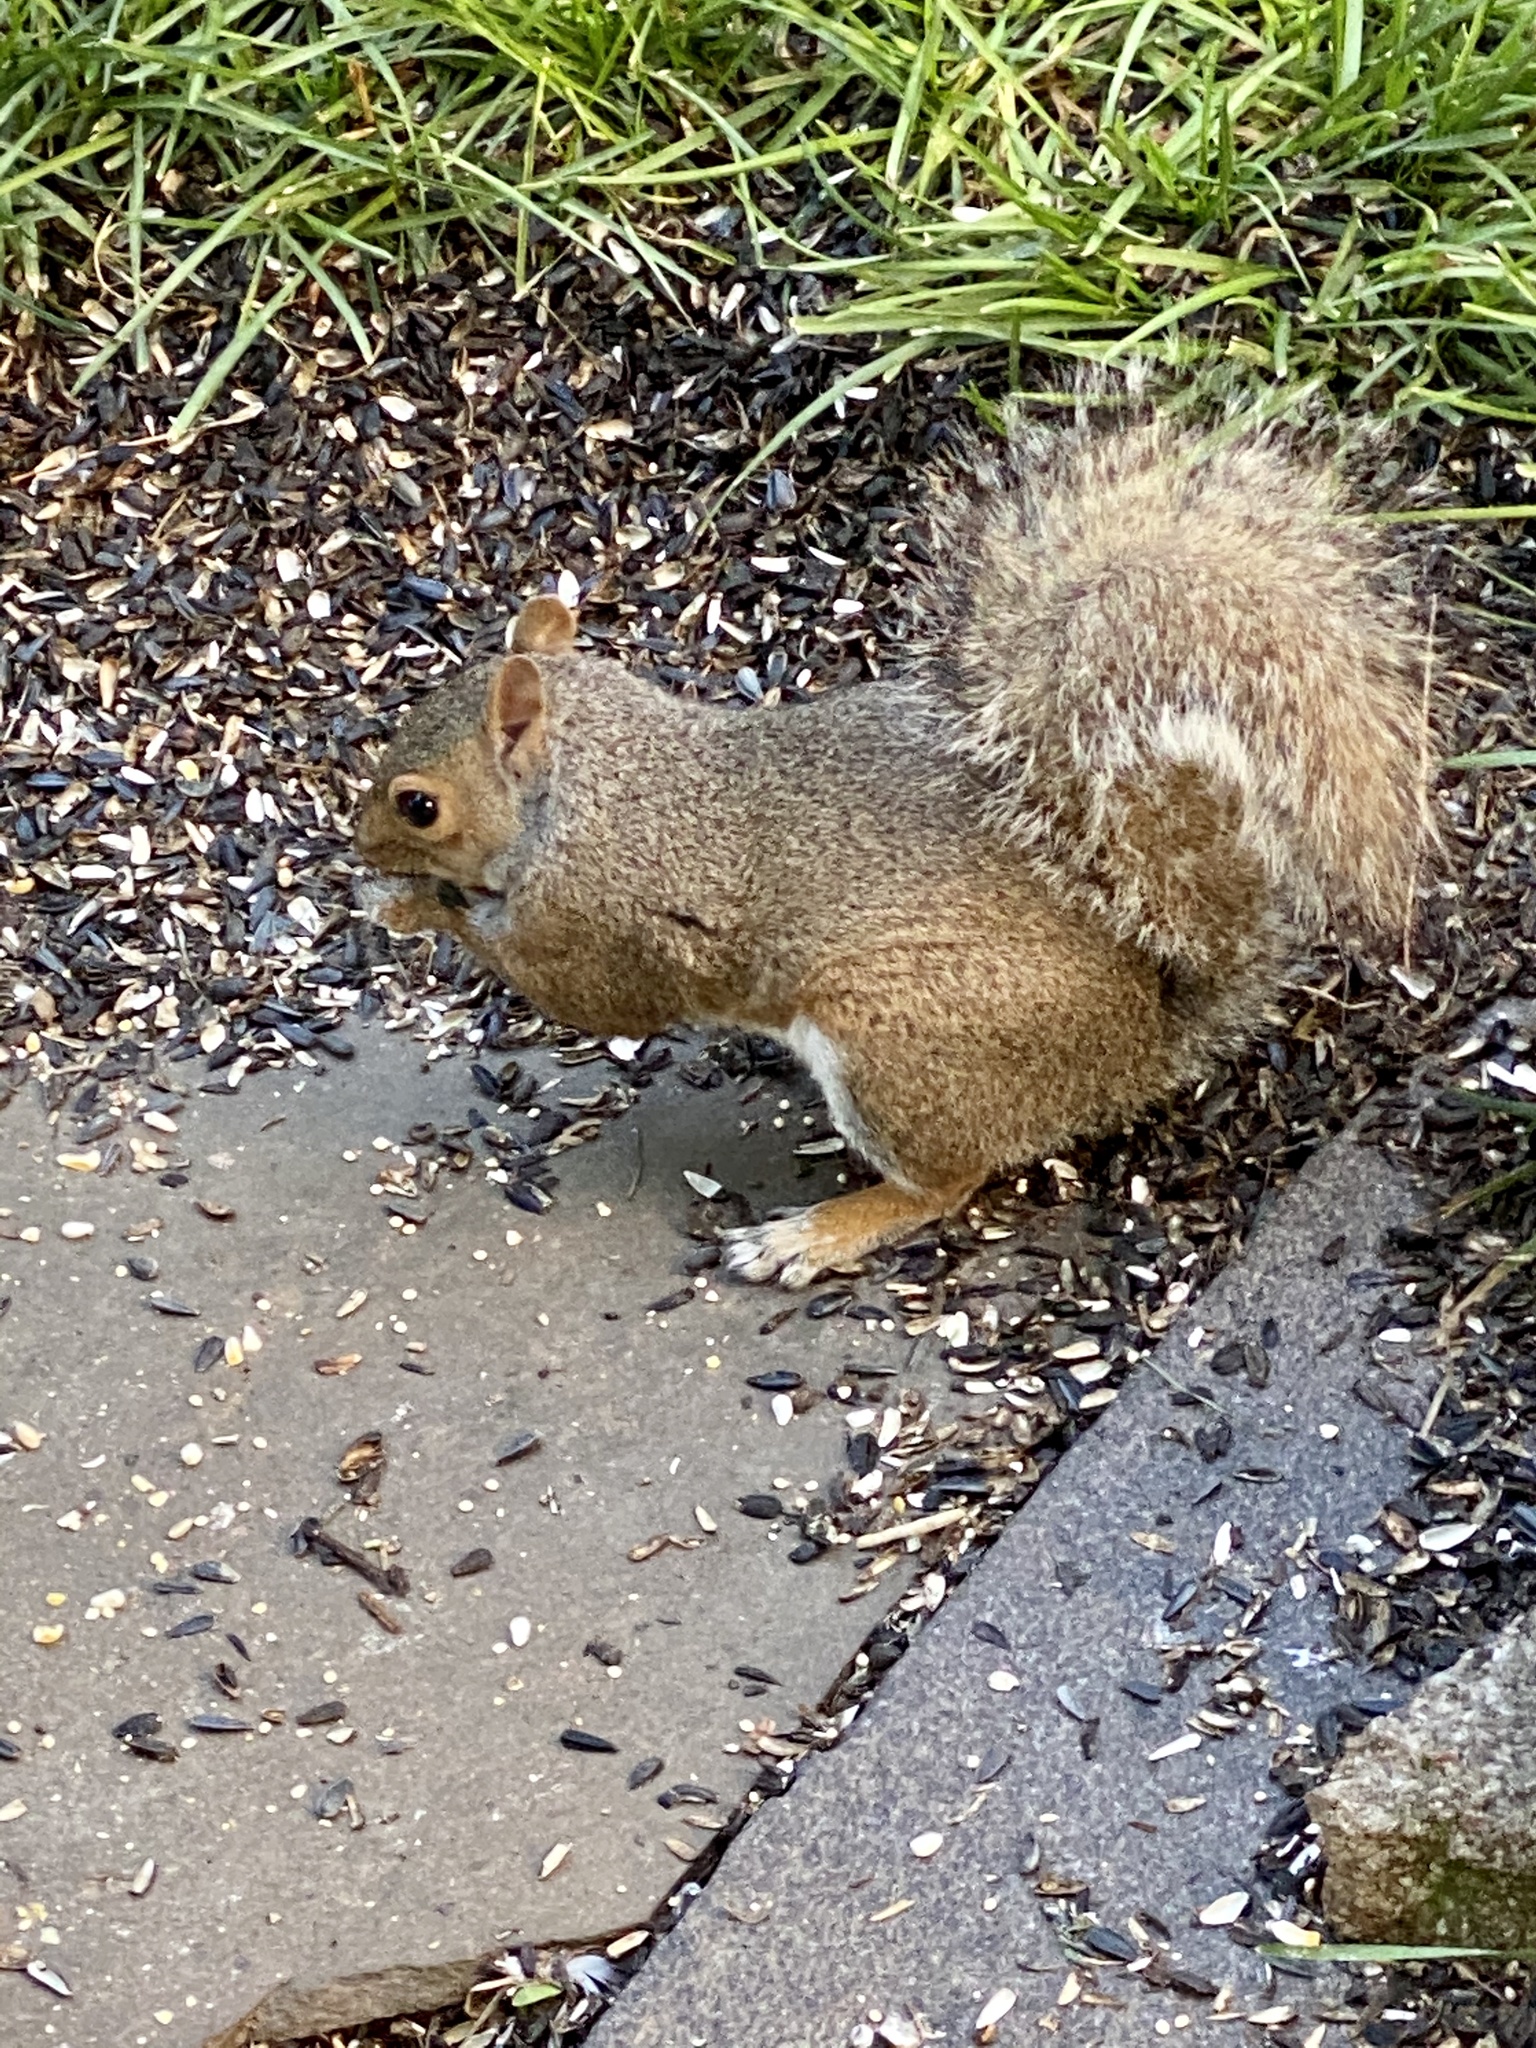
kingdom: Animalia
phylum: Chordata
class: Mammalia
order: Rodentia
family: Sciuridae
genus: Sciurus
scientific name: Sciurus carolinensis
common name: Eastern gray squirrel
